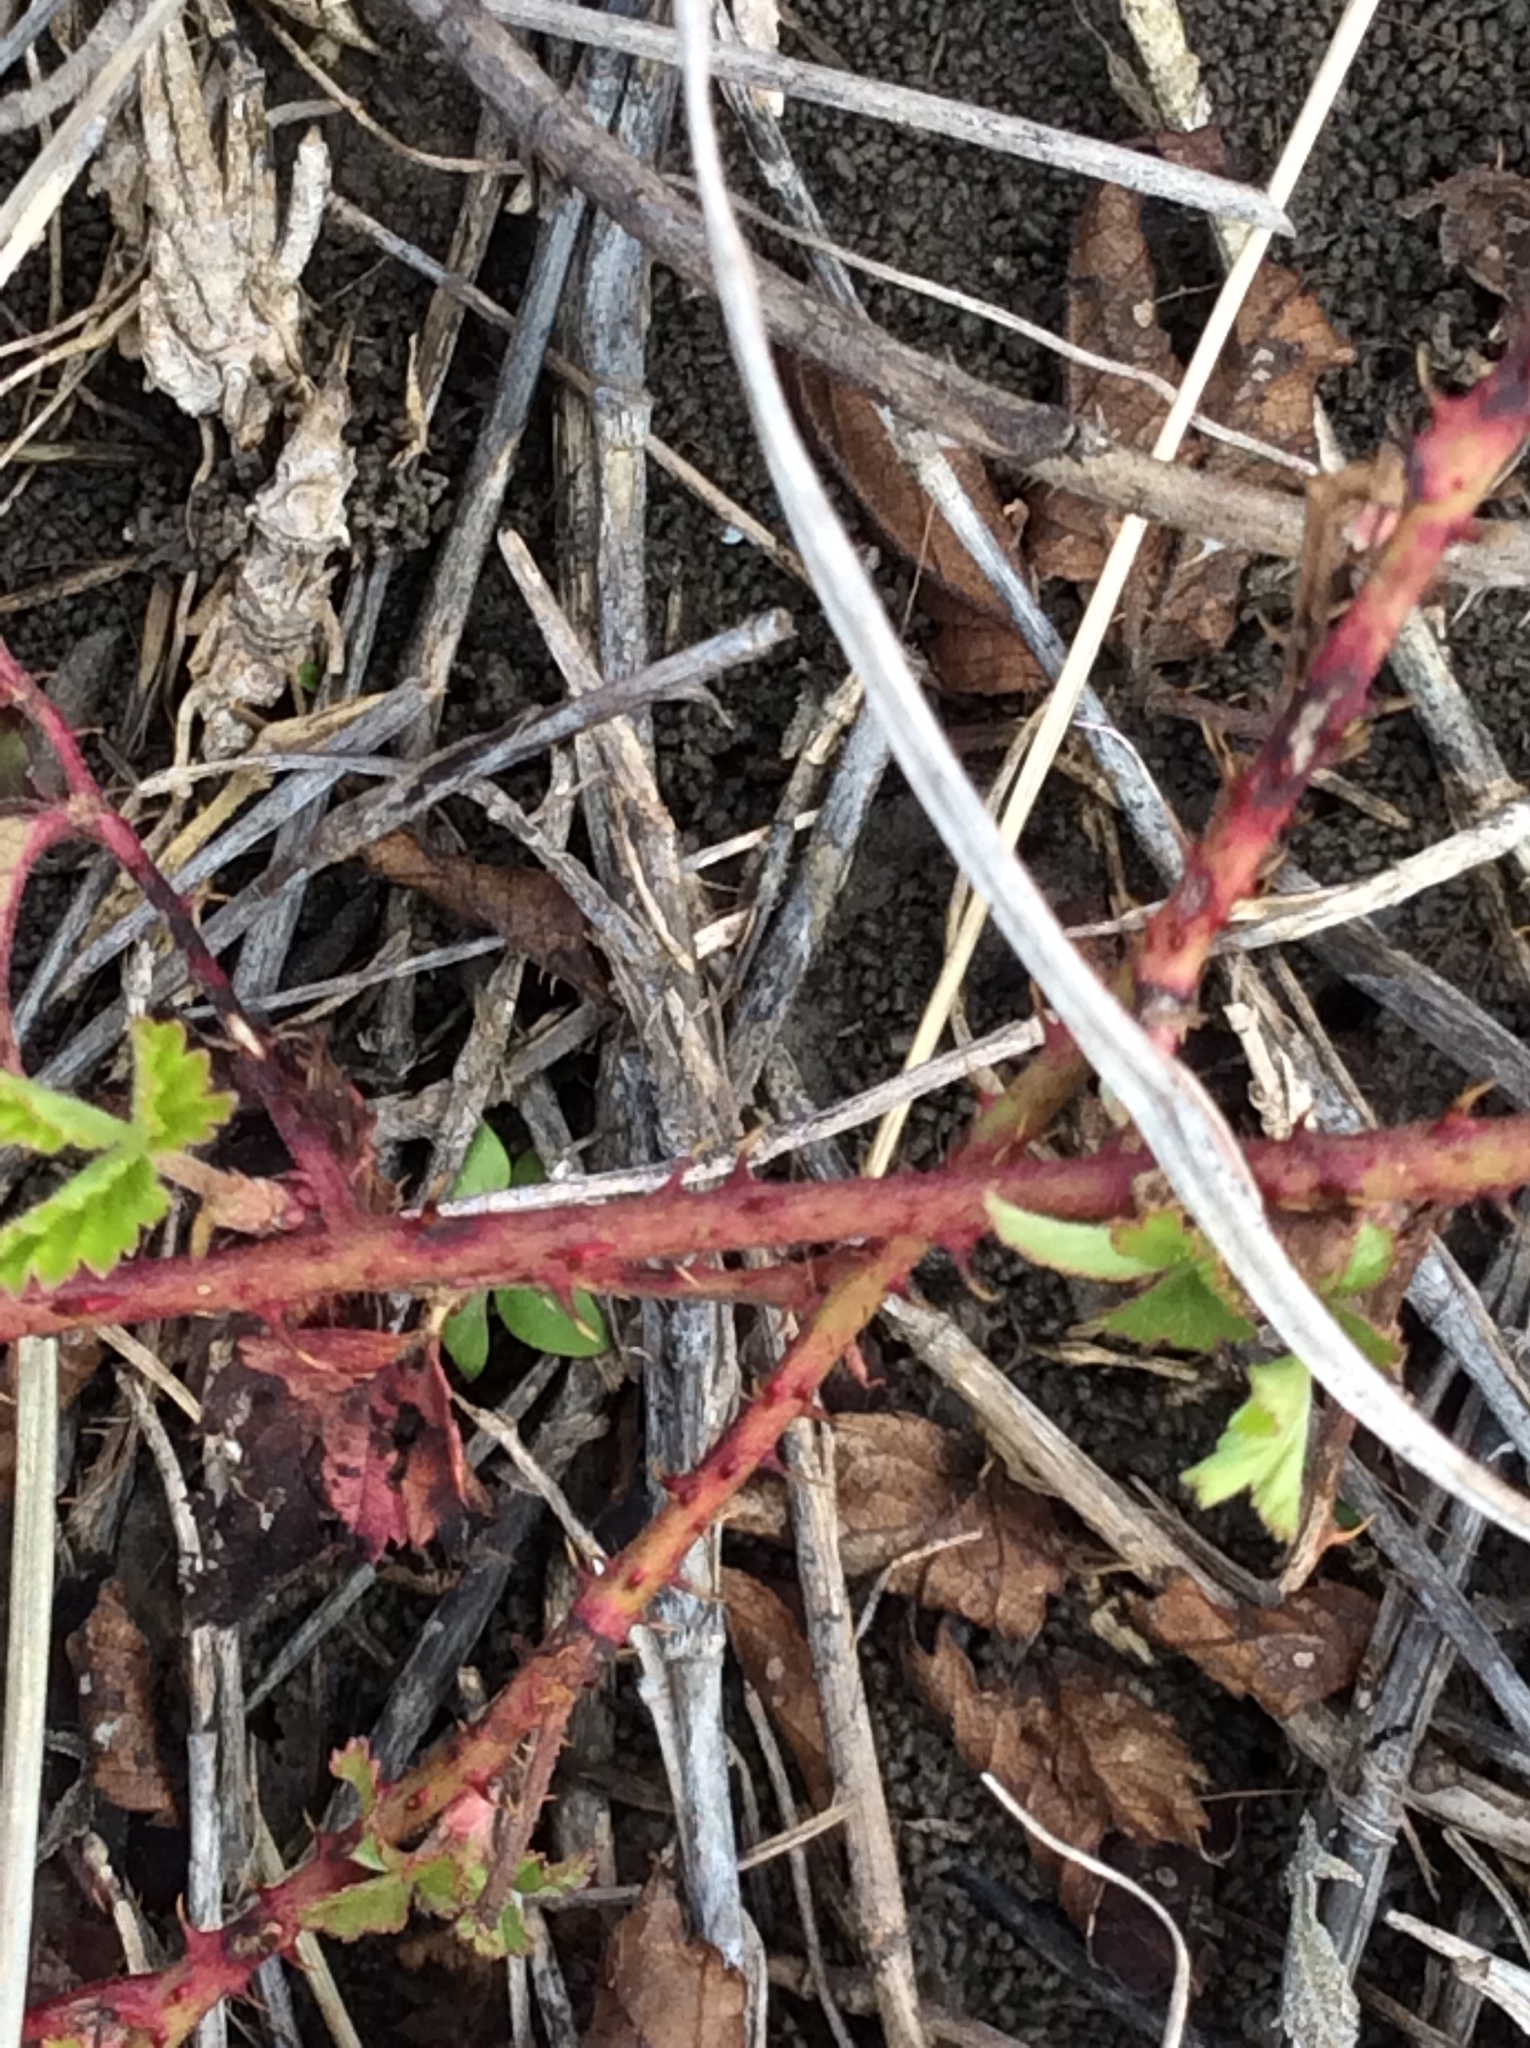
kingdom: Plantae
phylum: Tracheophyta
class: Magnoliopsida
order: Rosales
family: Rosaceae
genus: Rubus
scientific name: Rubus trivialis
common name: Southern dewberry
